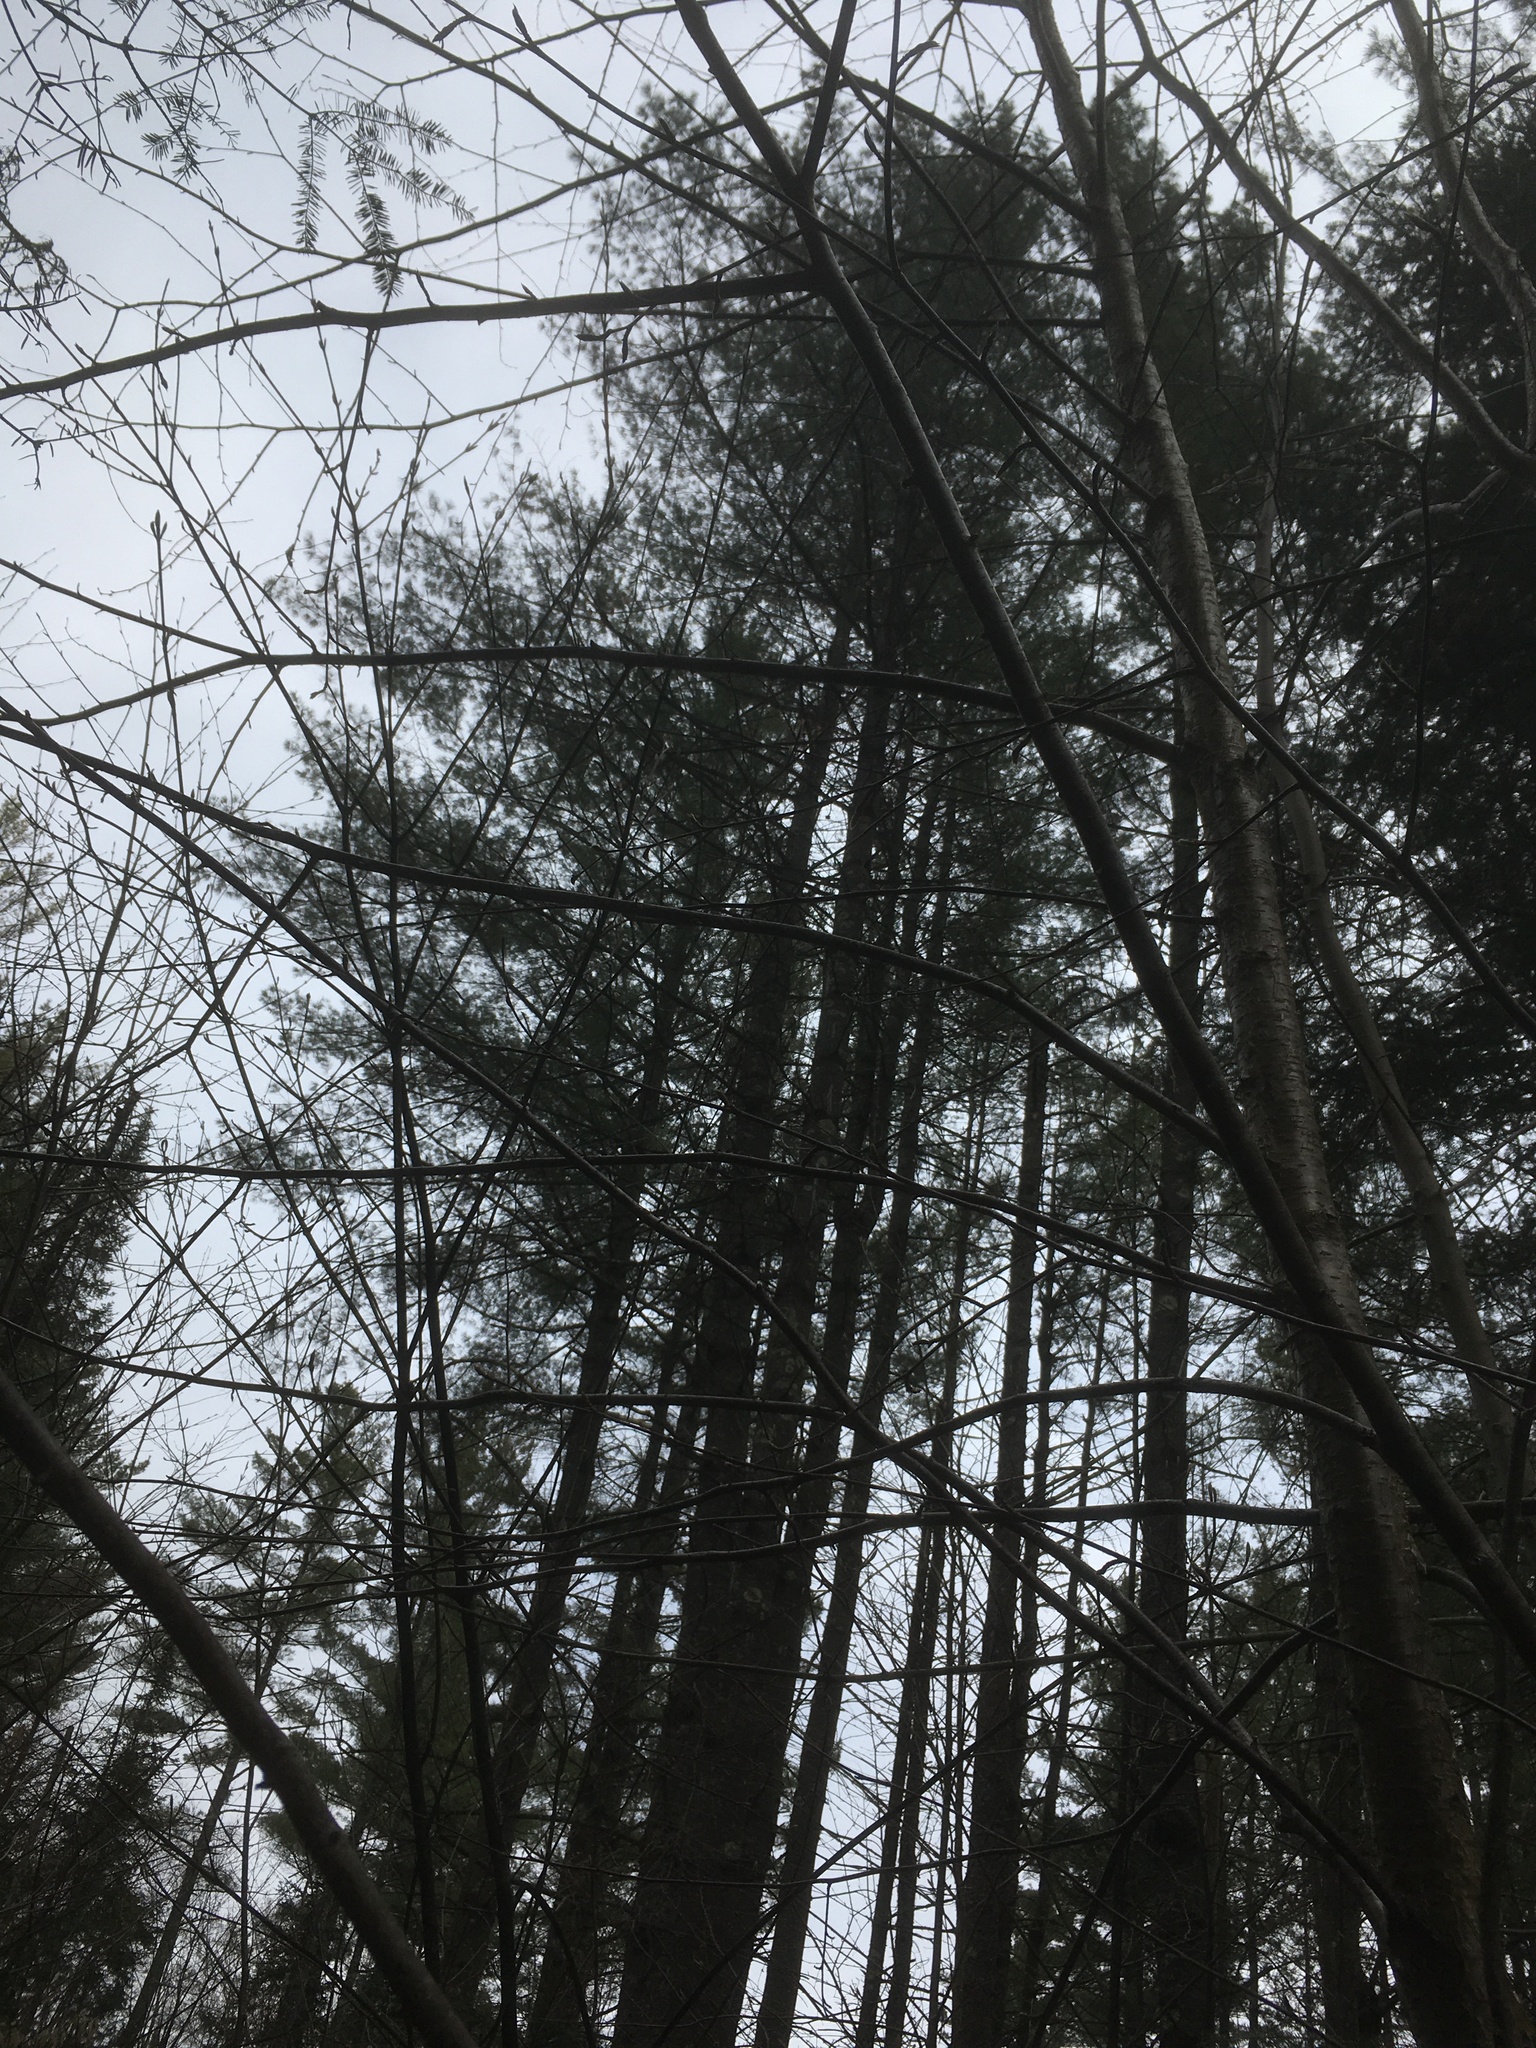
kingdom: Plantae
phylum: Tracheophyta
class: Pinopsida
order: Pinales
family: Pinaceae
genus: Pinus
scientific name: Pinus strobus
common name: Weymouth pine
